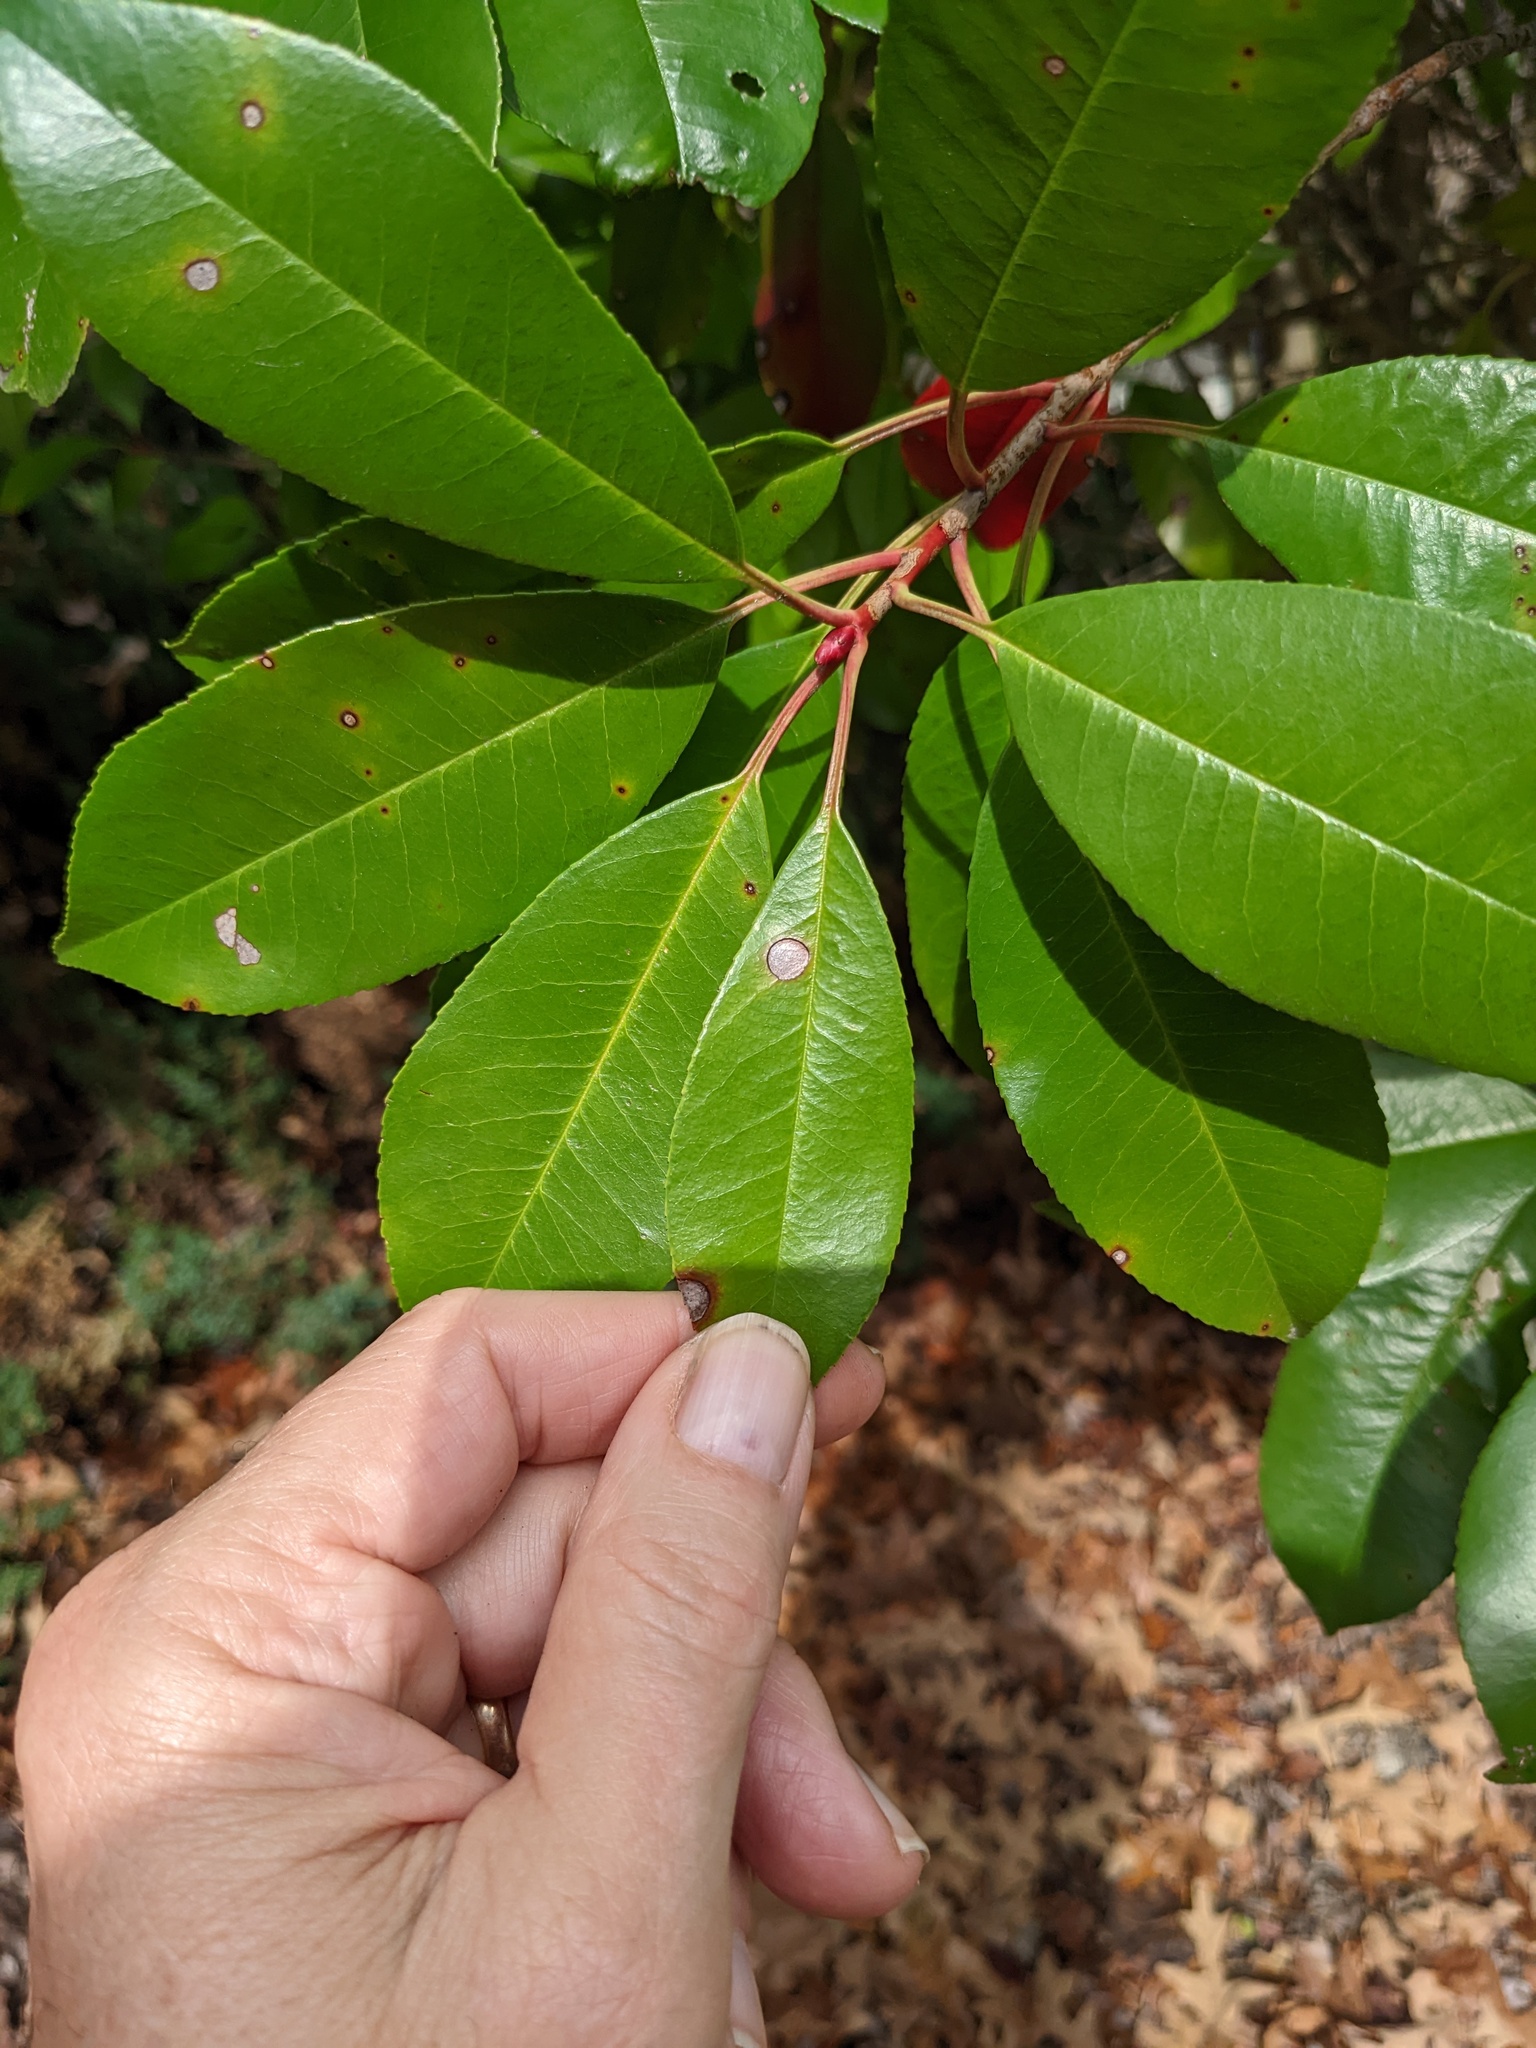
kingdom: Plantae
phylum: Tracheophyta
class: Magnoliopsida
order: Rosales
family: Rosaceae
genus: Prunus
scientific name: Prunus serotina
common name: Black cherry
